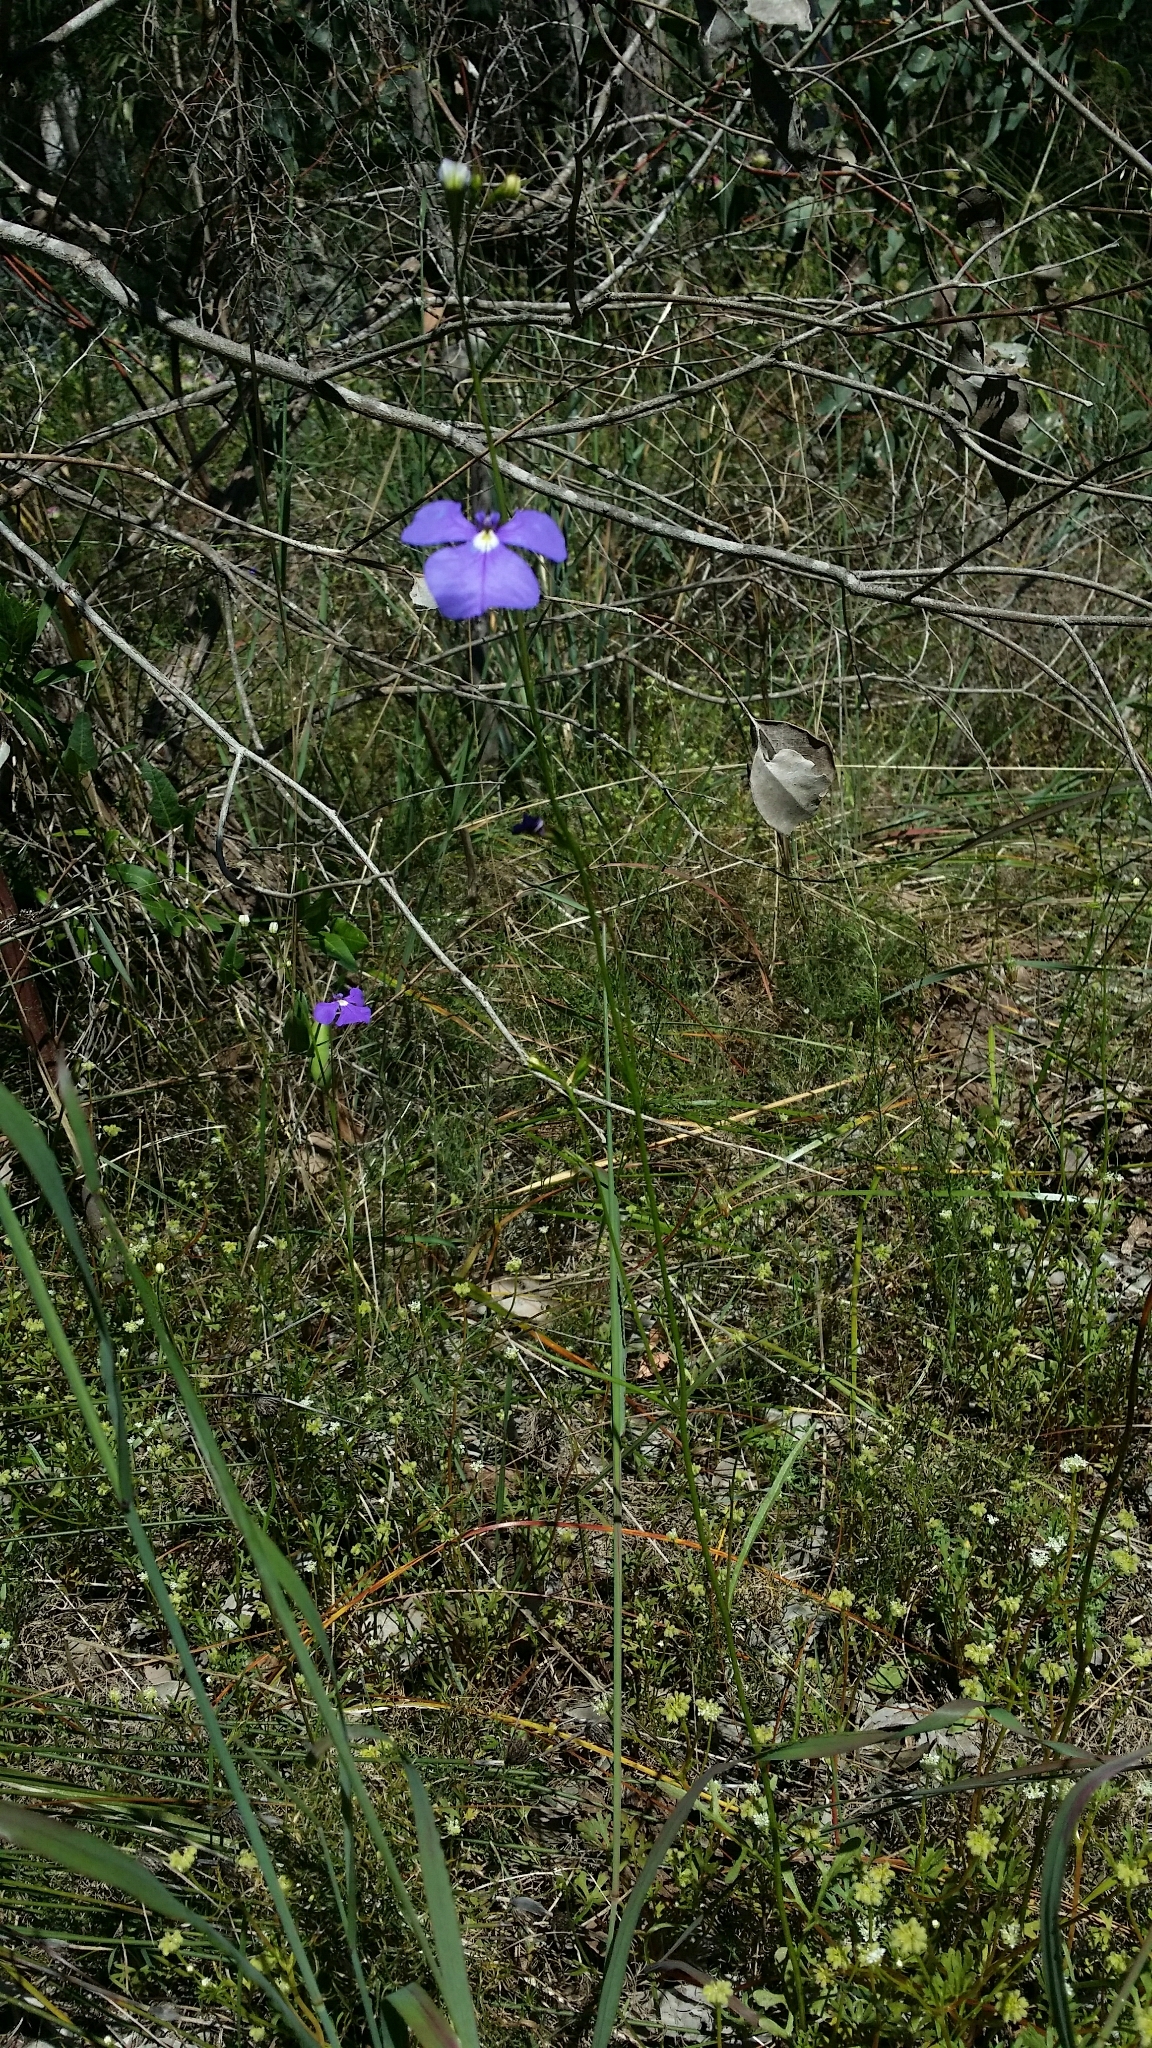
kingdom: Plantae
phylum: Tracheophyta
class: Magnoliopsida
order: Asterales
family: Campanulaceae
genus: Lobelia
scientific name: Lobelia tenuior
